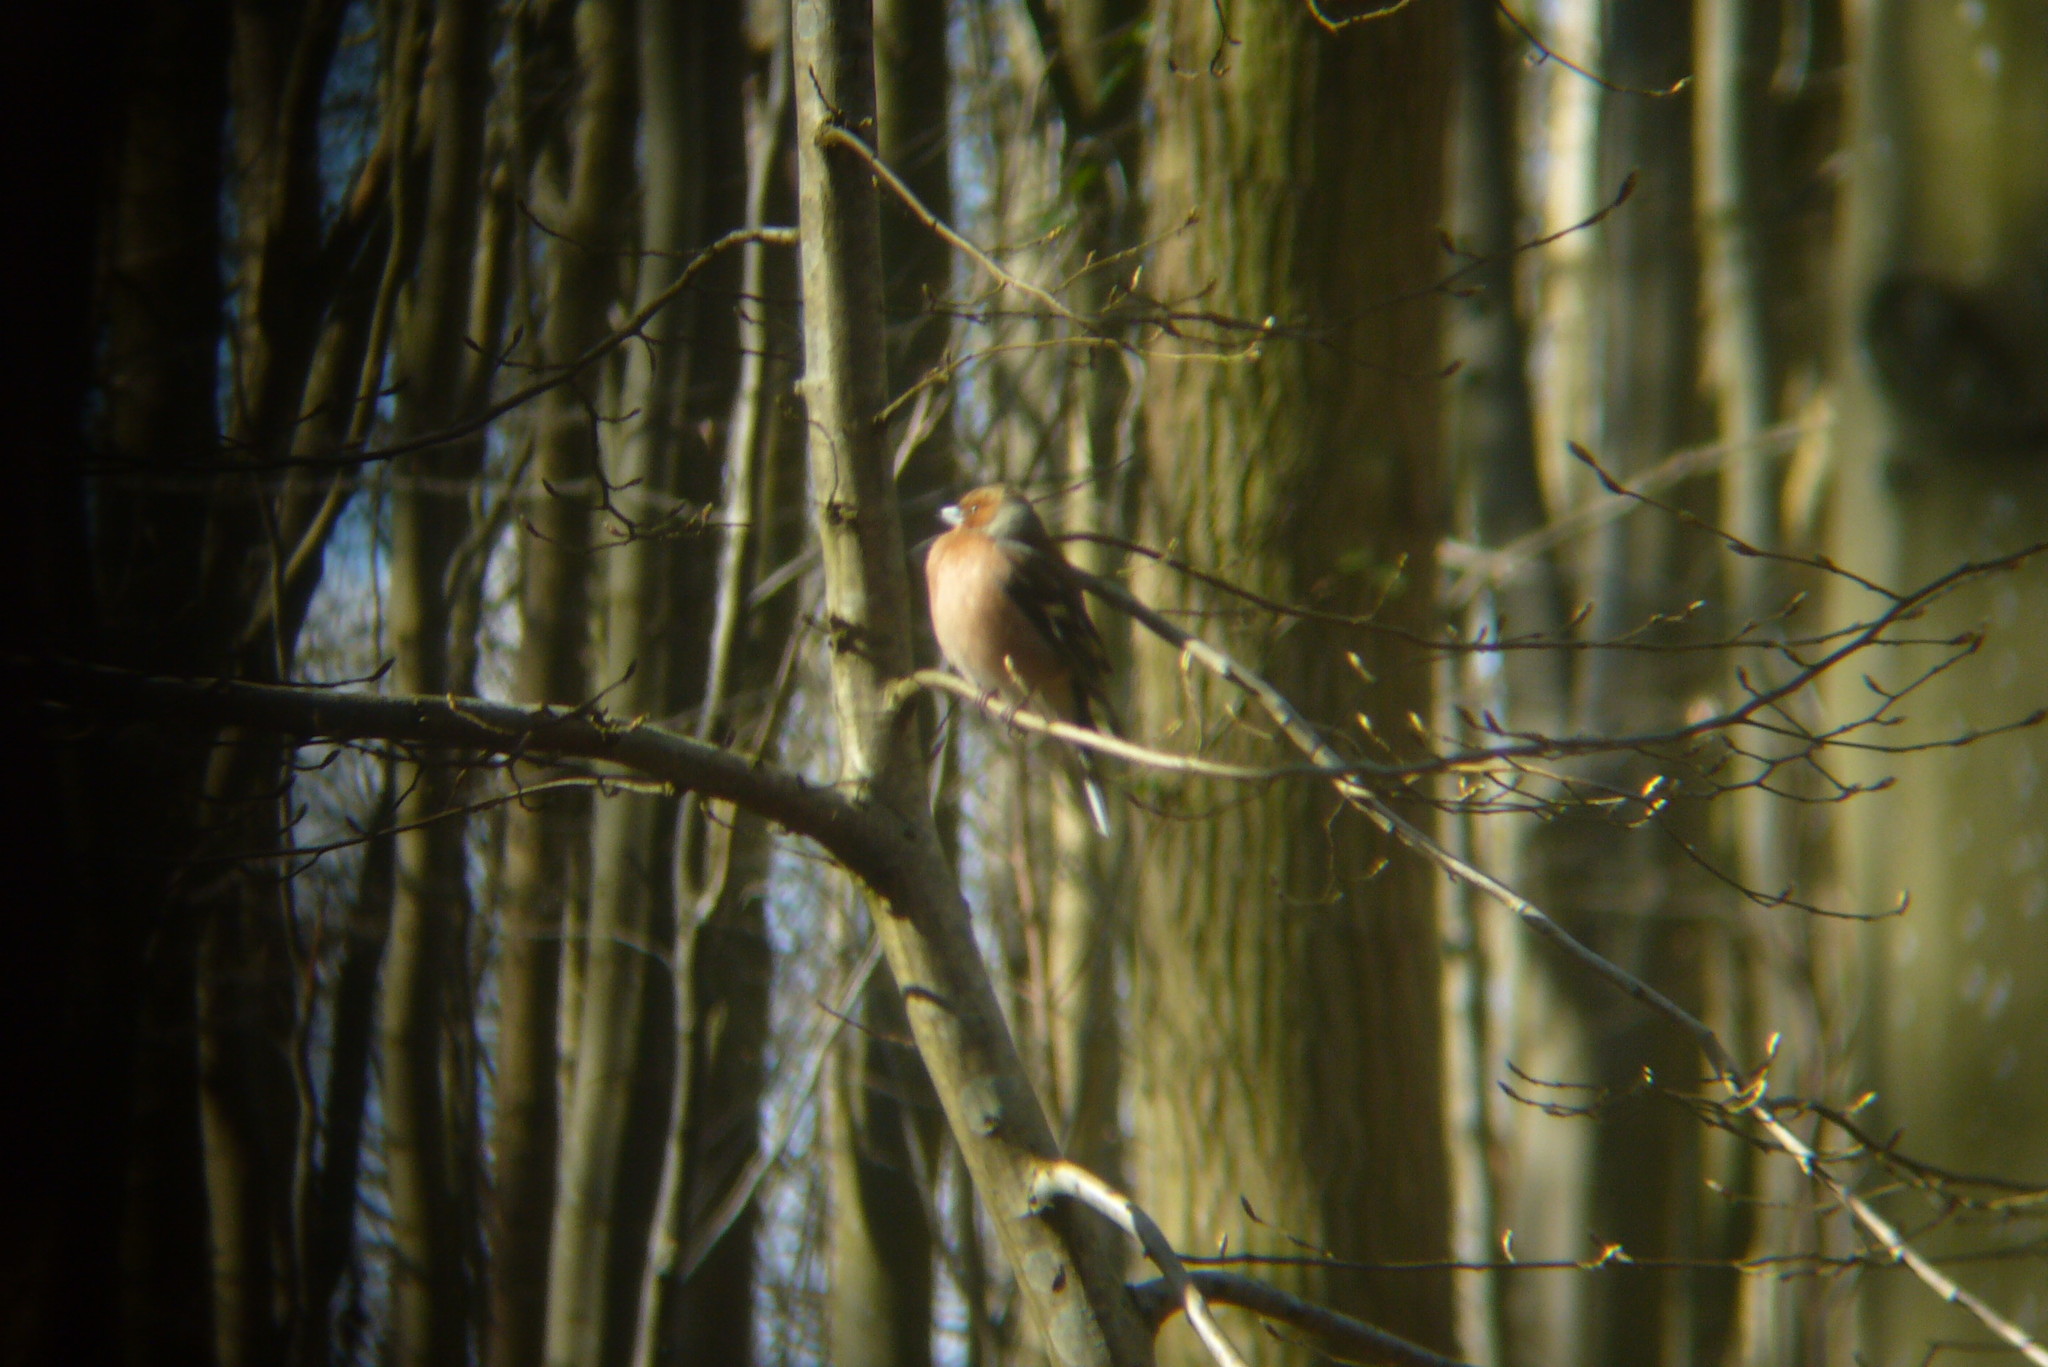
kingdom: Animalia
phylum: Chordata
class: Aves
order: Passeriformes
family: Fringillidae
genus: Fringilla
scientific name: Fringilla coelebs
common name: Common chaffinch
